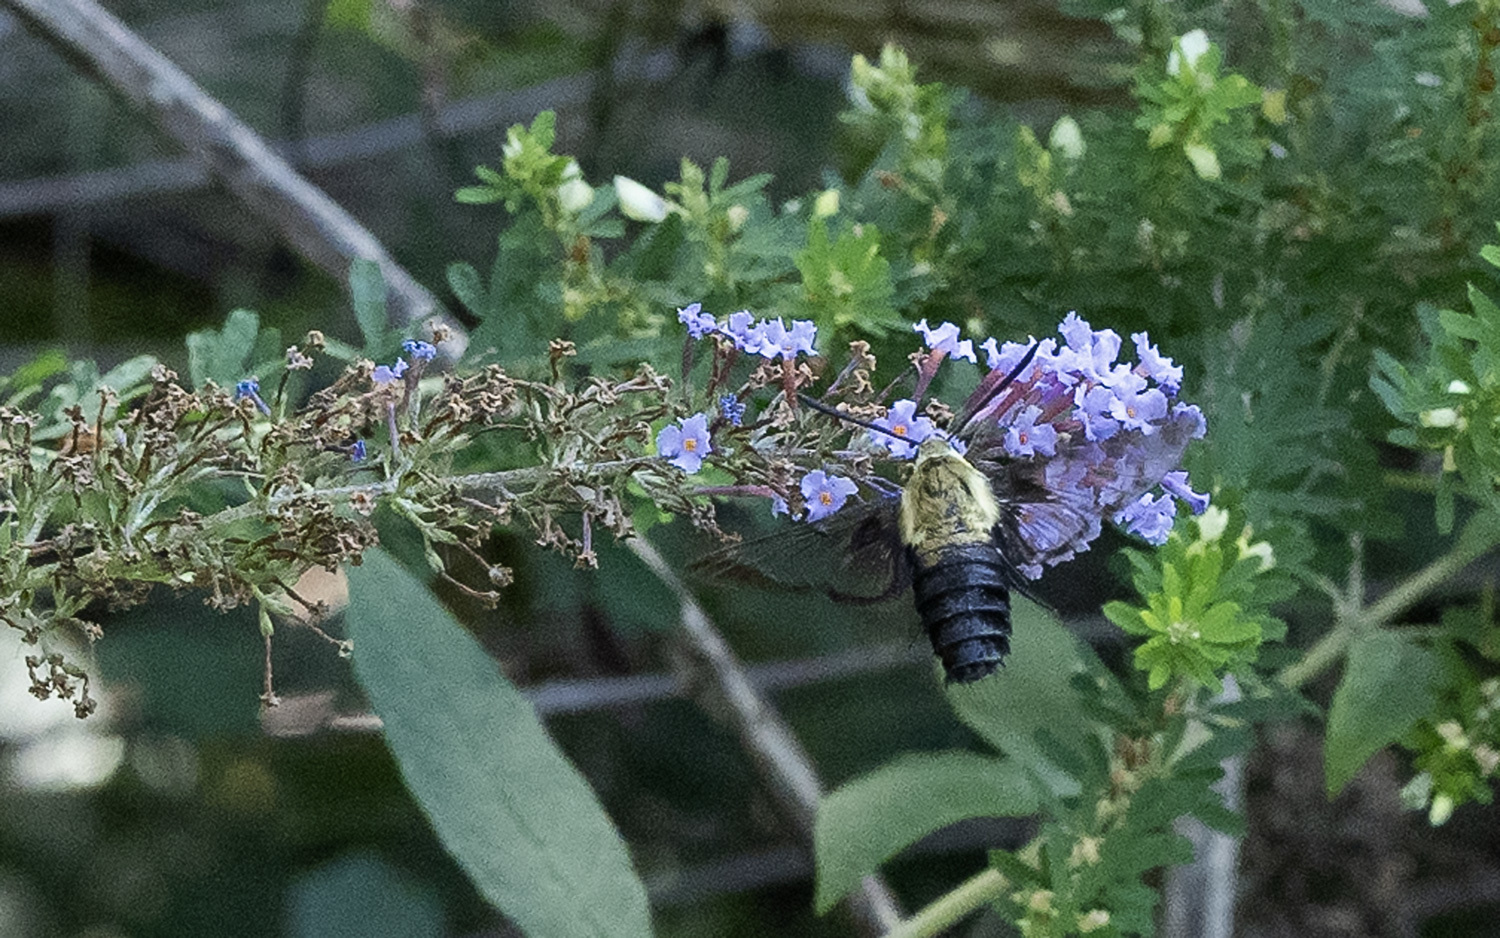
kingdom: Animalia
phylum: Arthropoda
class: Insecta
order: Lepidoptera
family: Sphingidae
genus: Hemaris
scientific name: Hemaris diffinis
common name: Bumblebee moth
